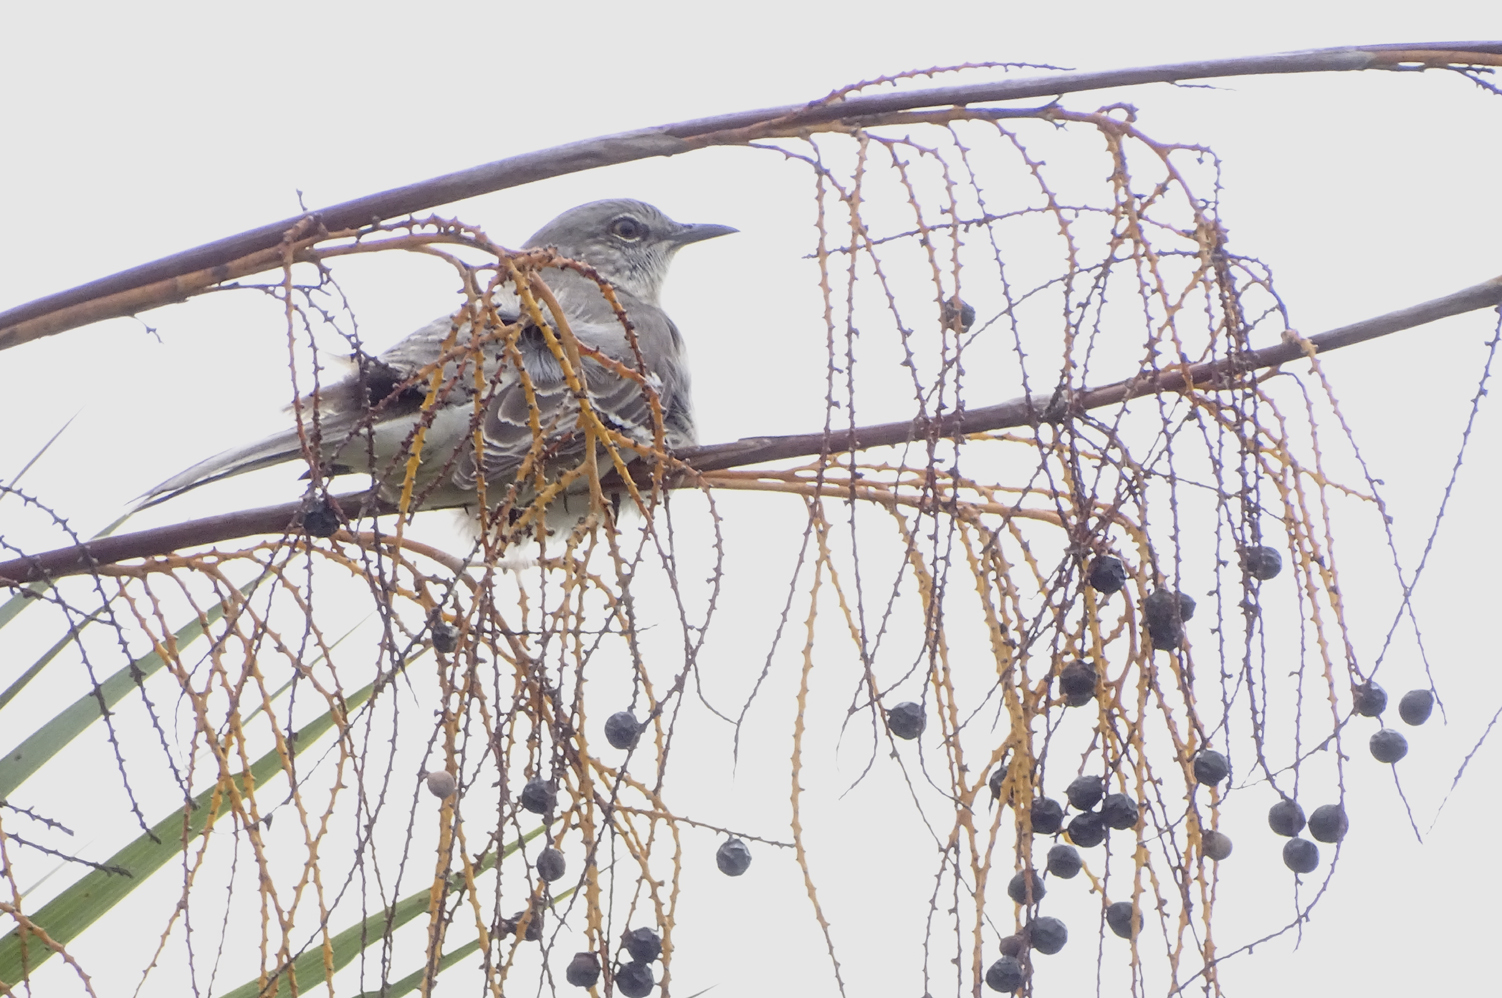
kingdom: Animalia
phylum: Chordata
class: Aves
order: Passeriformes
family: Mimidae
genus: Mimus
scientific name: Mimus polyglottos
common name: Northern mockingbird
